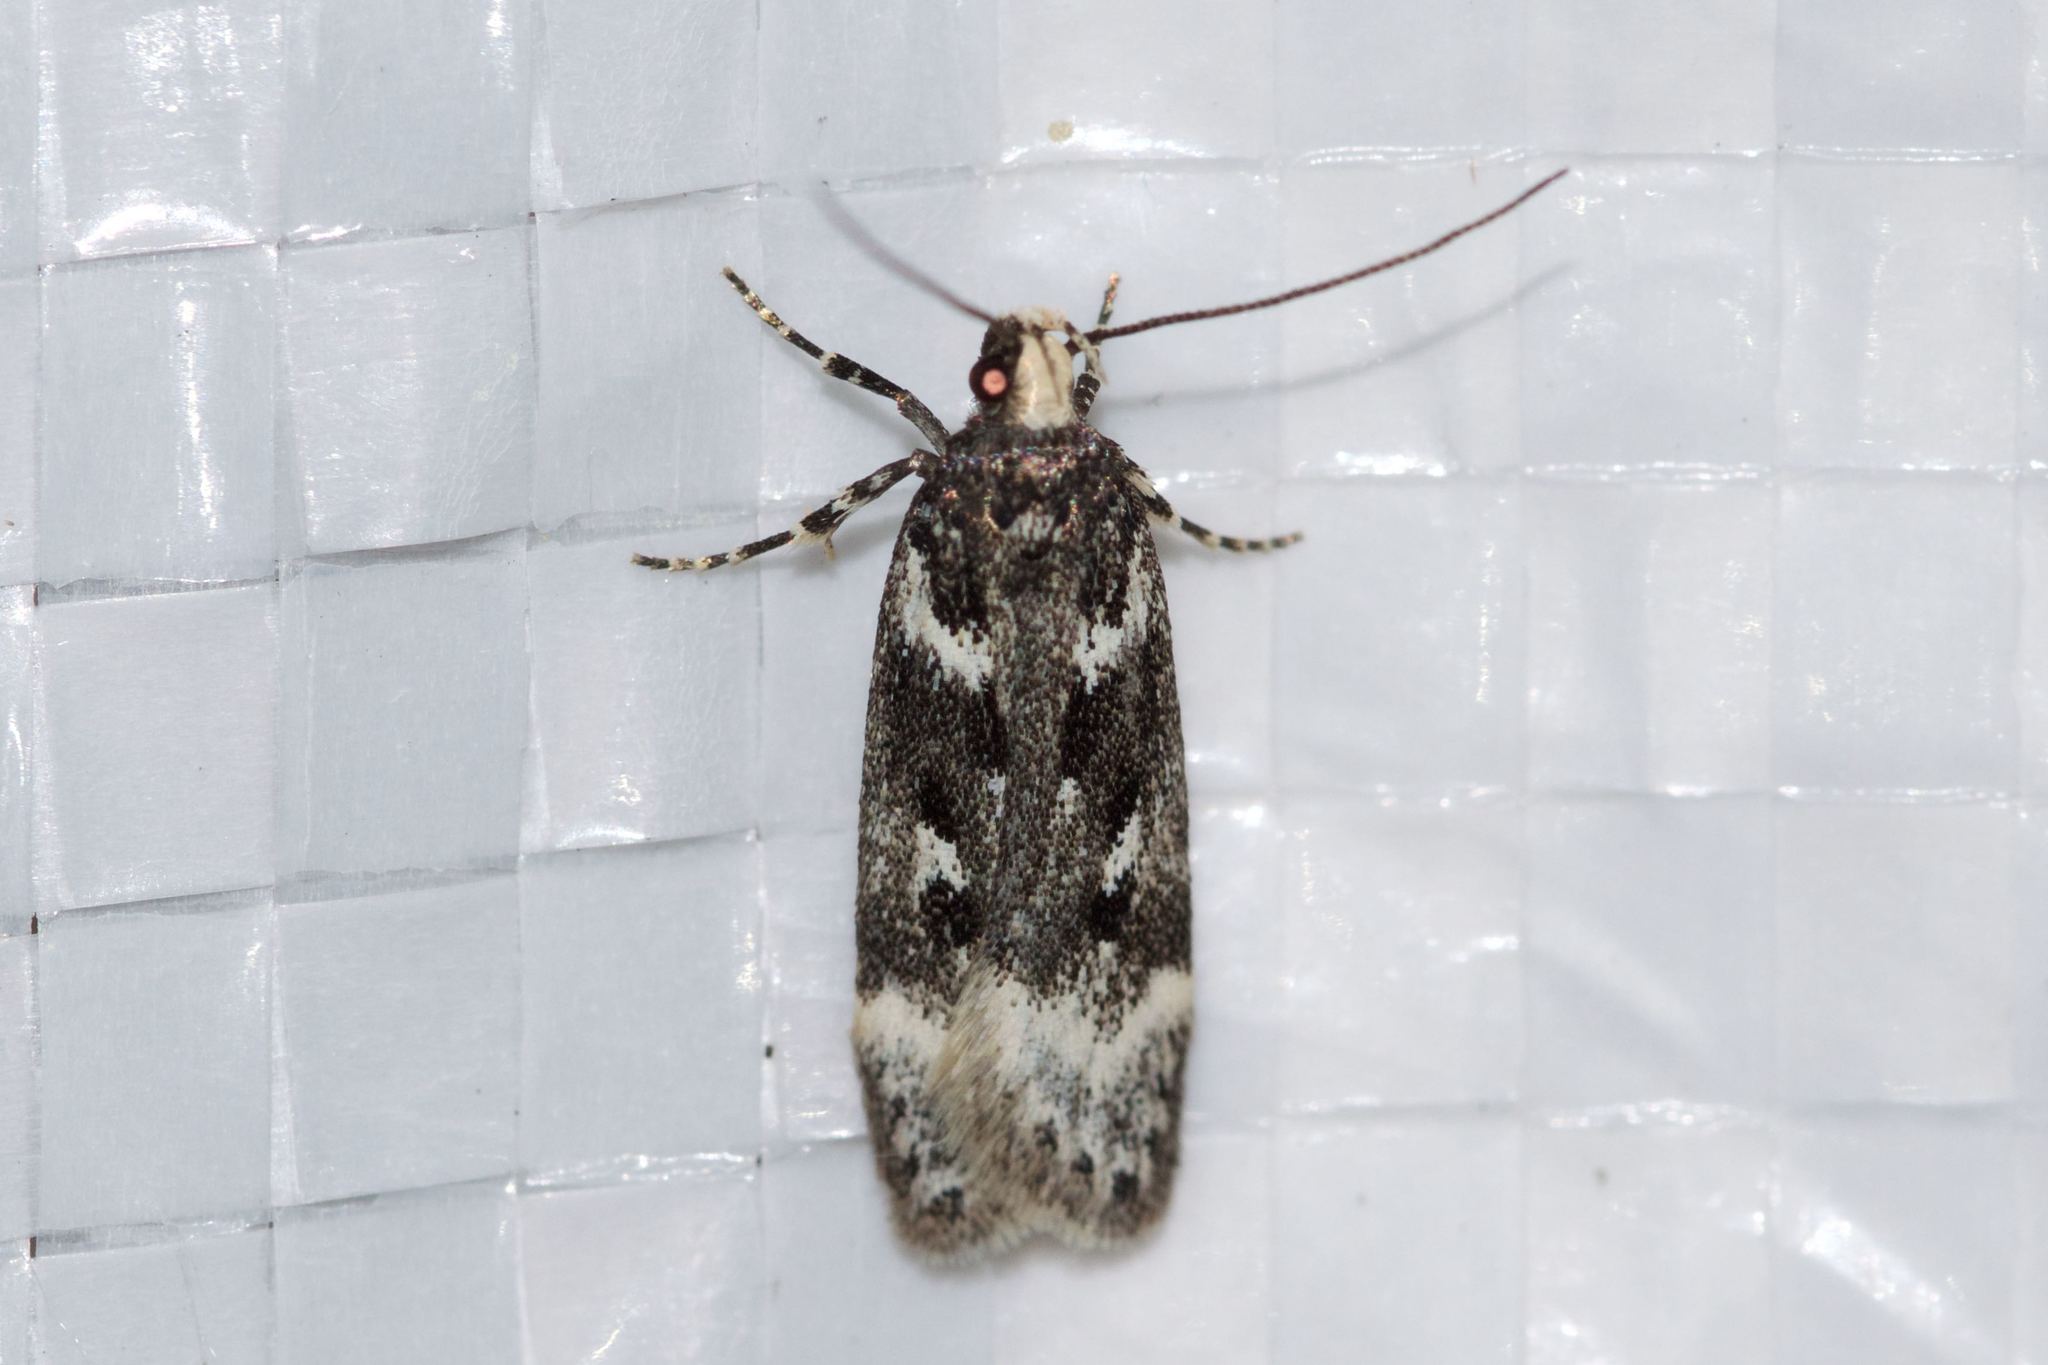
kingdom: Animalia
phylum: Arthropoda
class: Insecta
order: Lepidoptera
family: Gelechiidae
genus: Chionodes
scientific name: Chionodes sattleri
